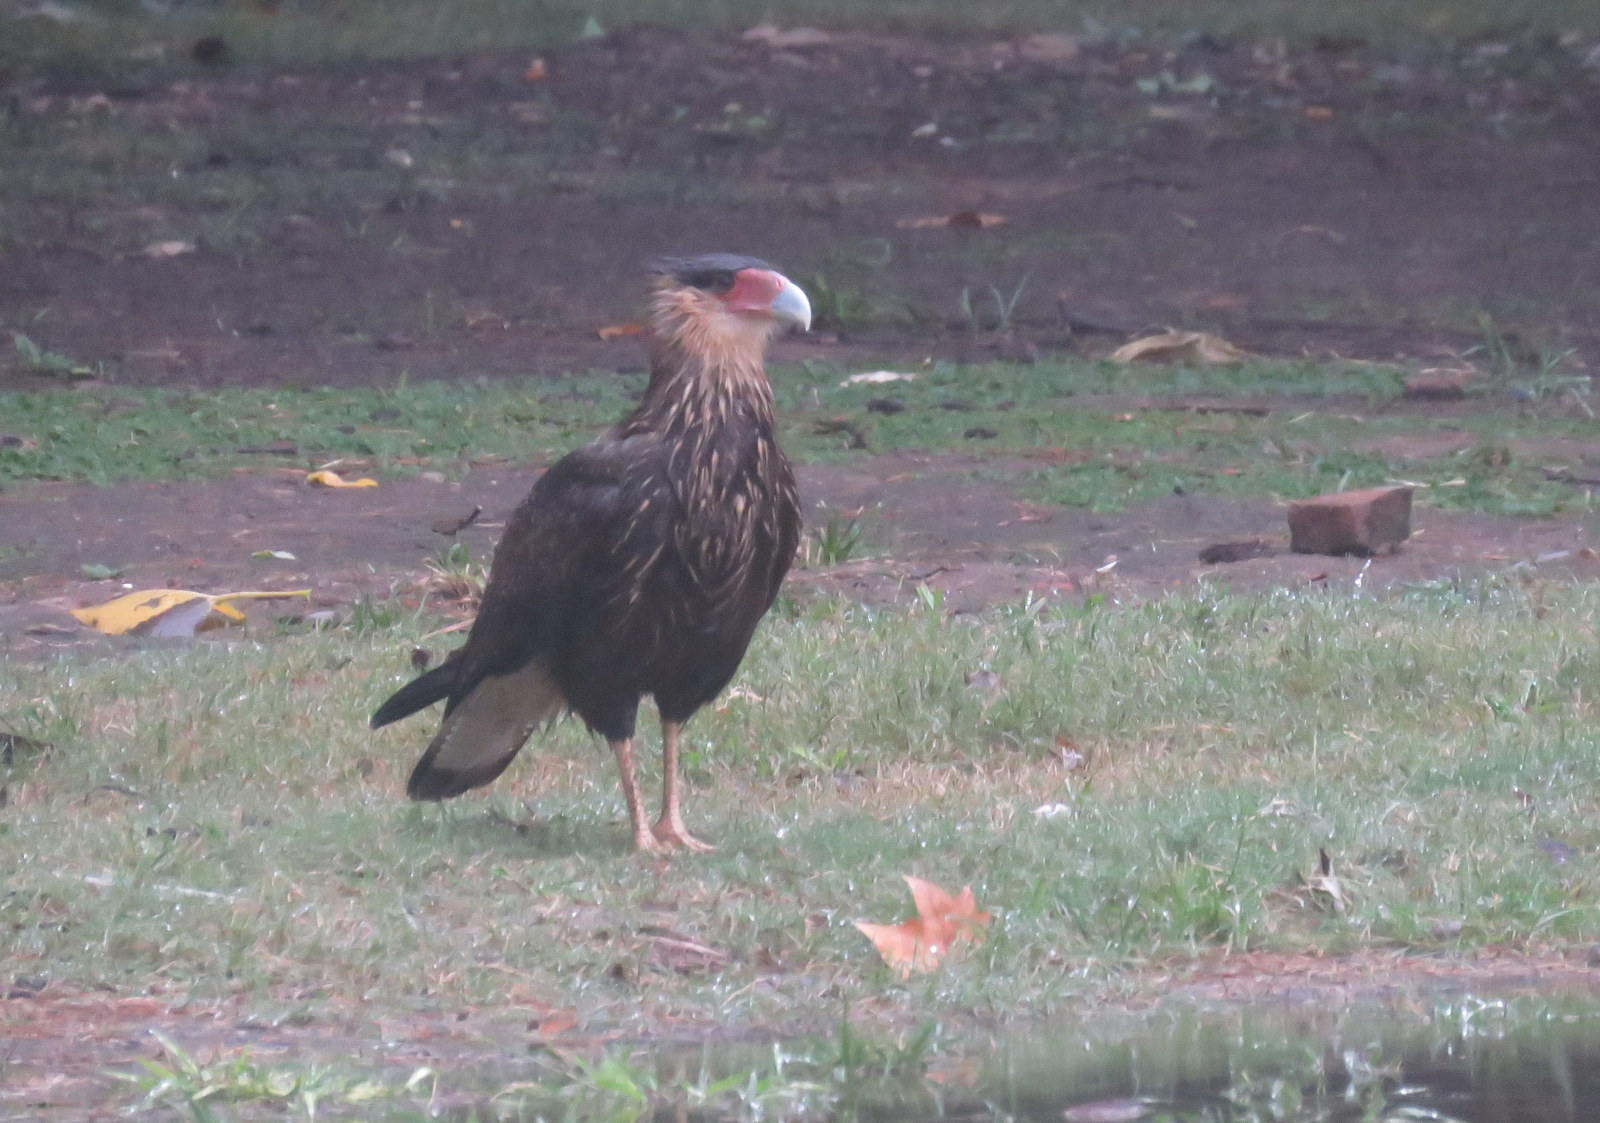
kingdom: Animalia
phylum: Chordata
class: Aves
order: Falconiformes
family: Falconidae
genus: Caracara
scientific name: Caracara plancus
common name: Southern caracara
